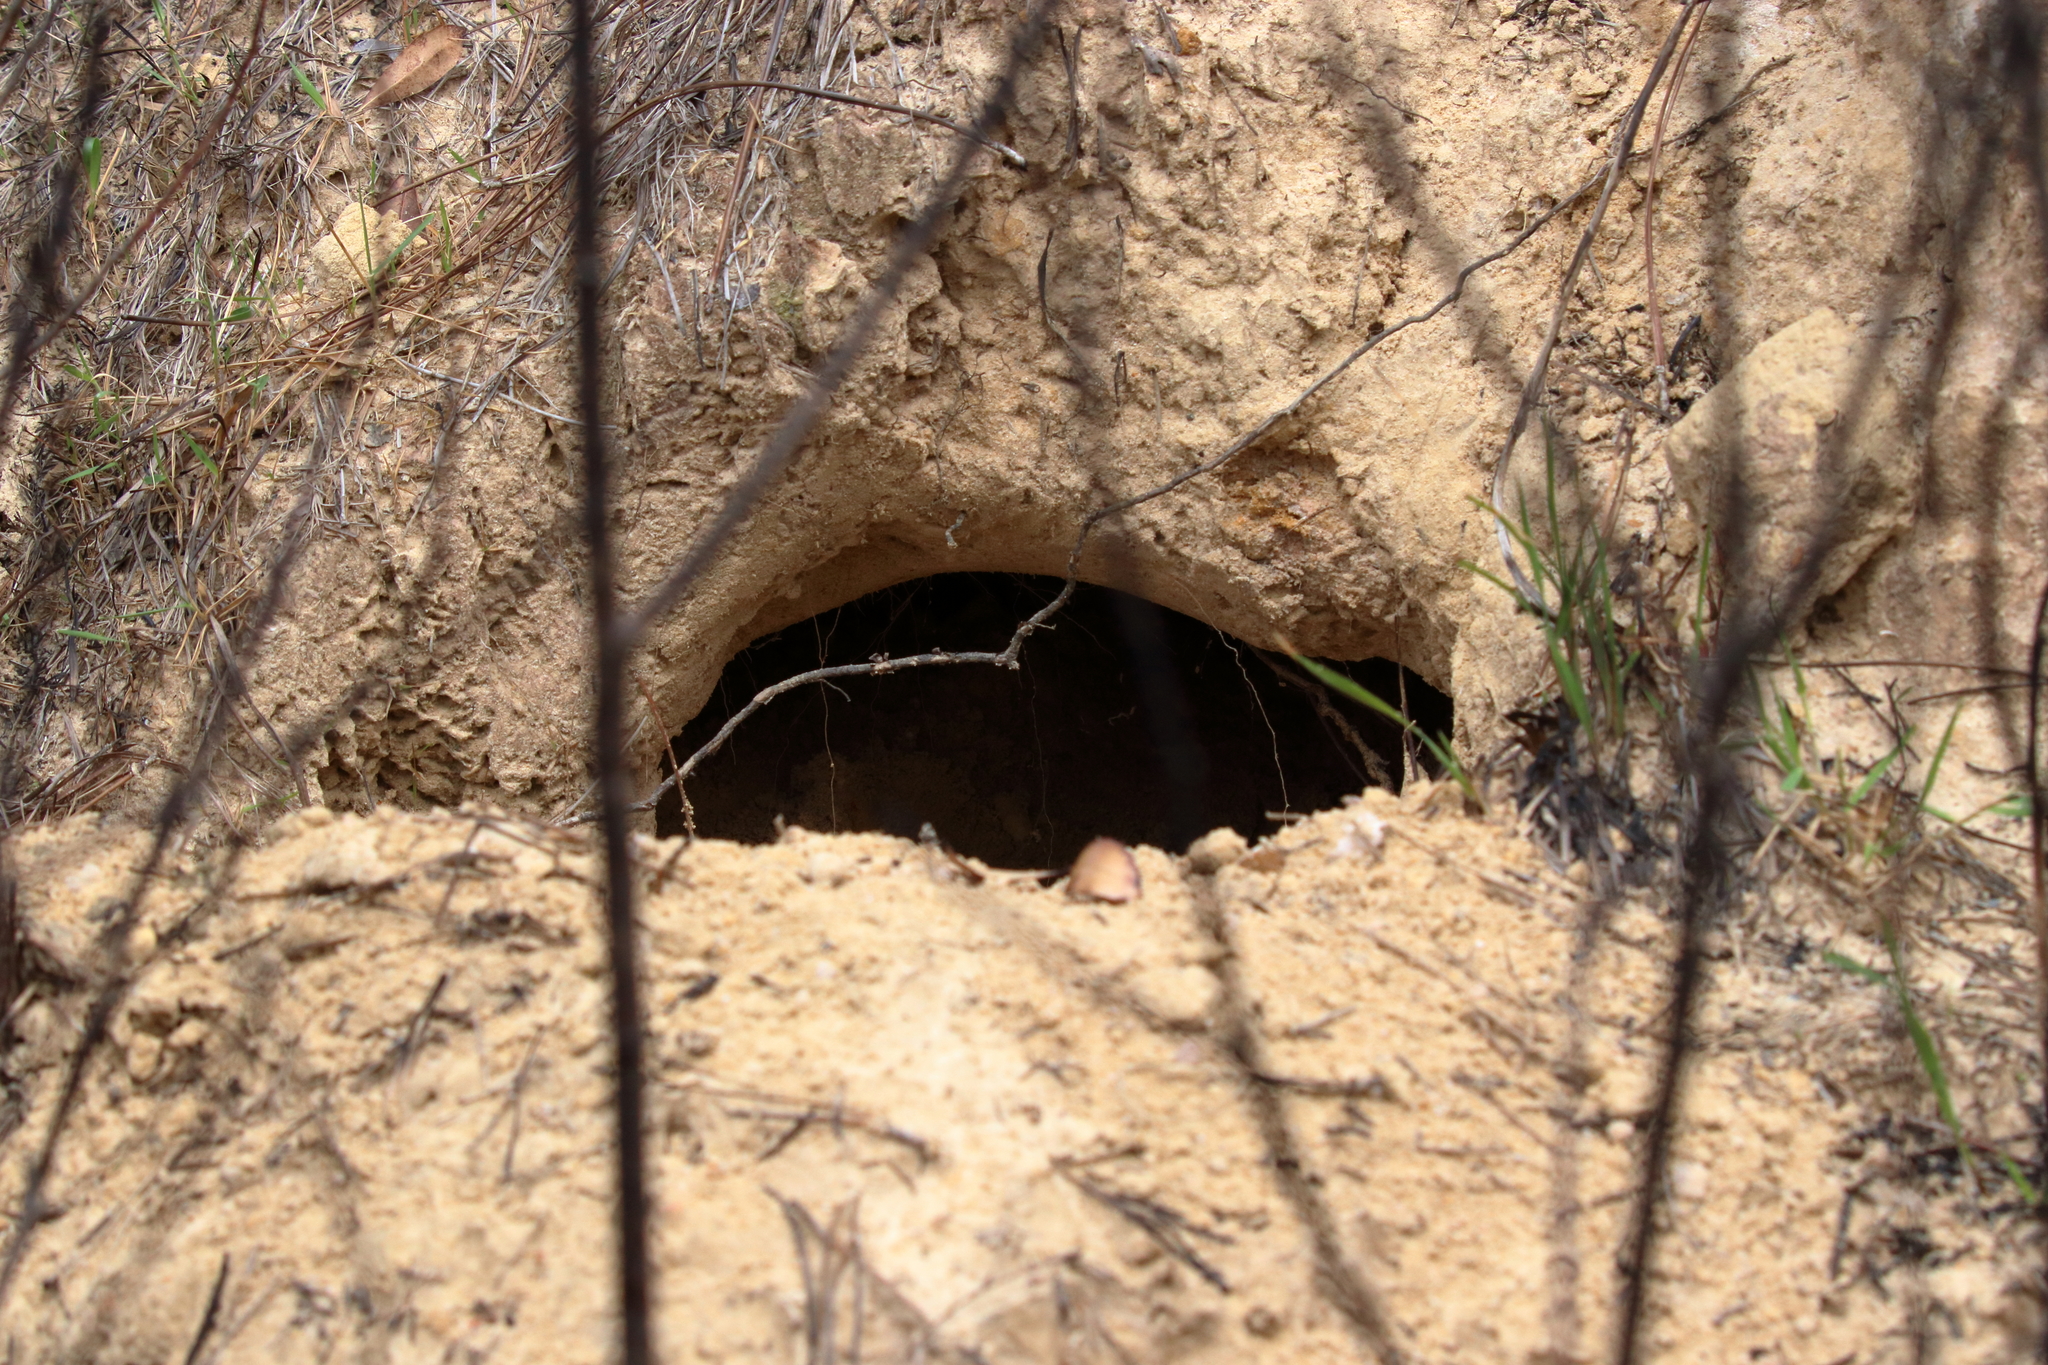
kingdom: Animalia
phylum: Chordata
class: Testudines
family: Testudinidae
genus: Gopherus
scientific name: Gopherus polyphemus
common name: Florida gopher tortoise
